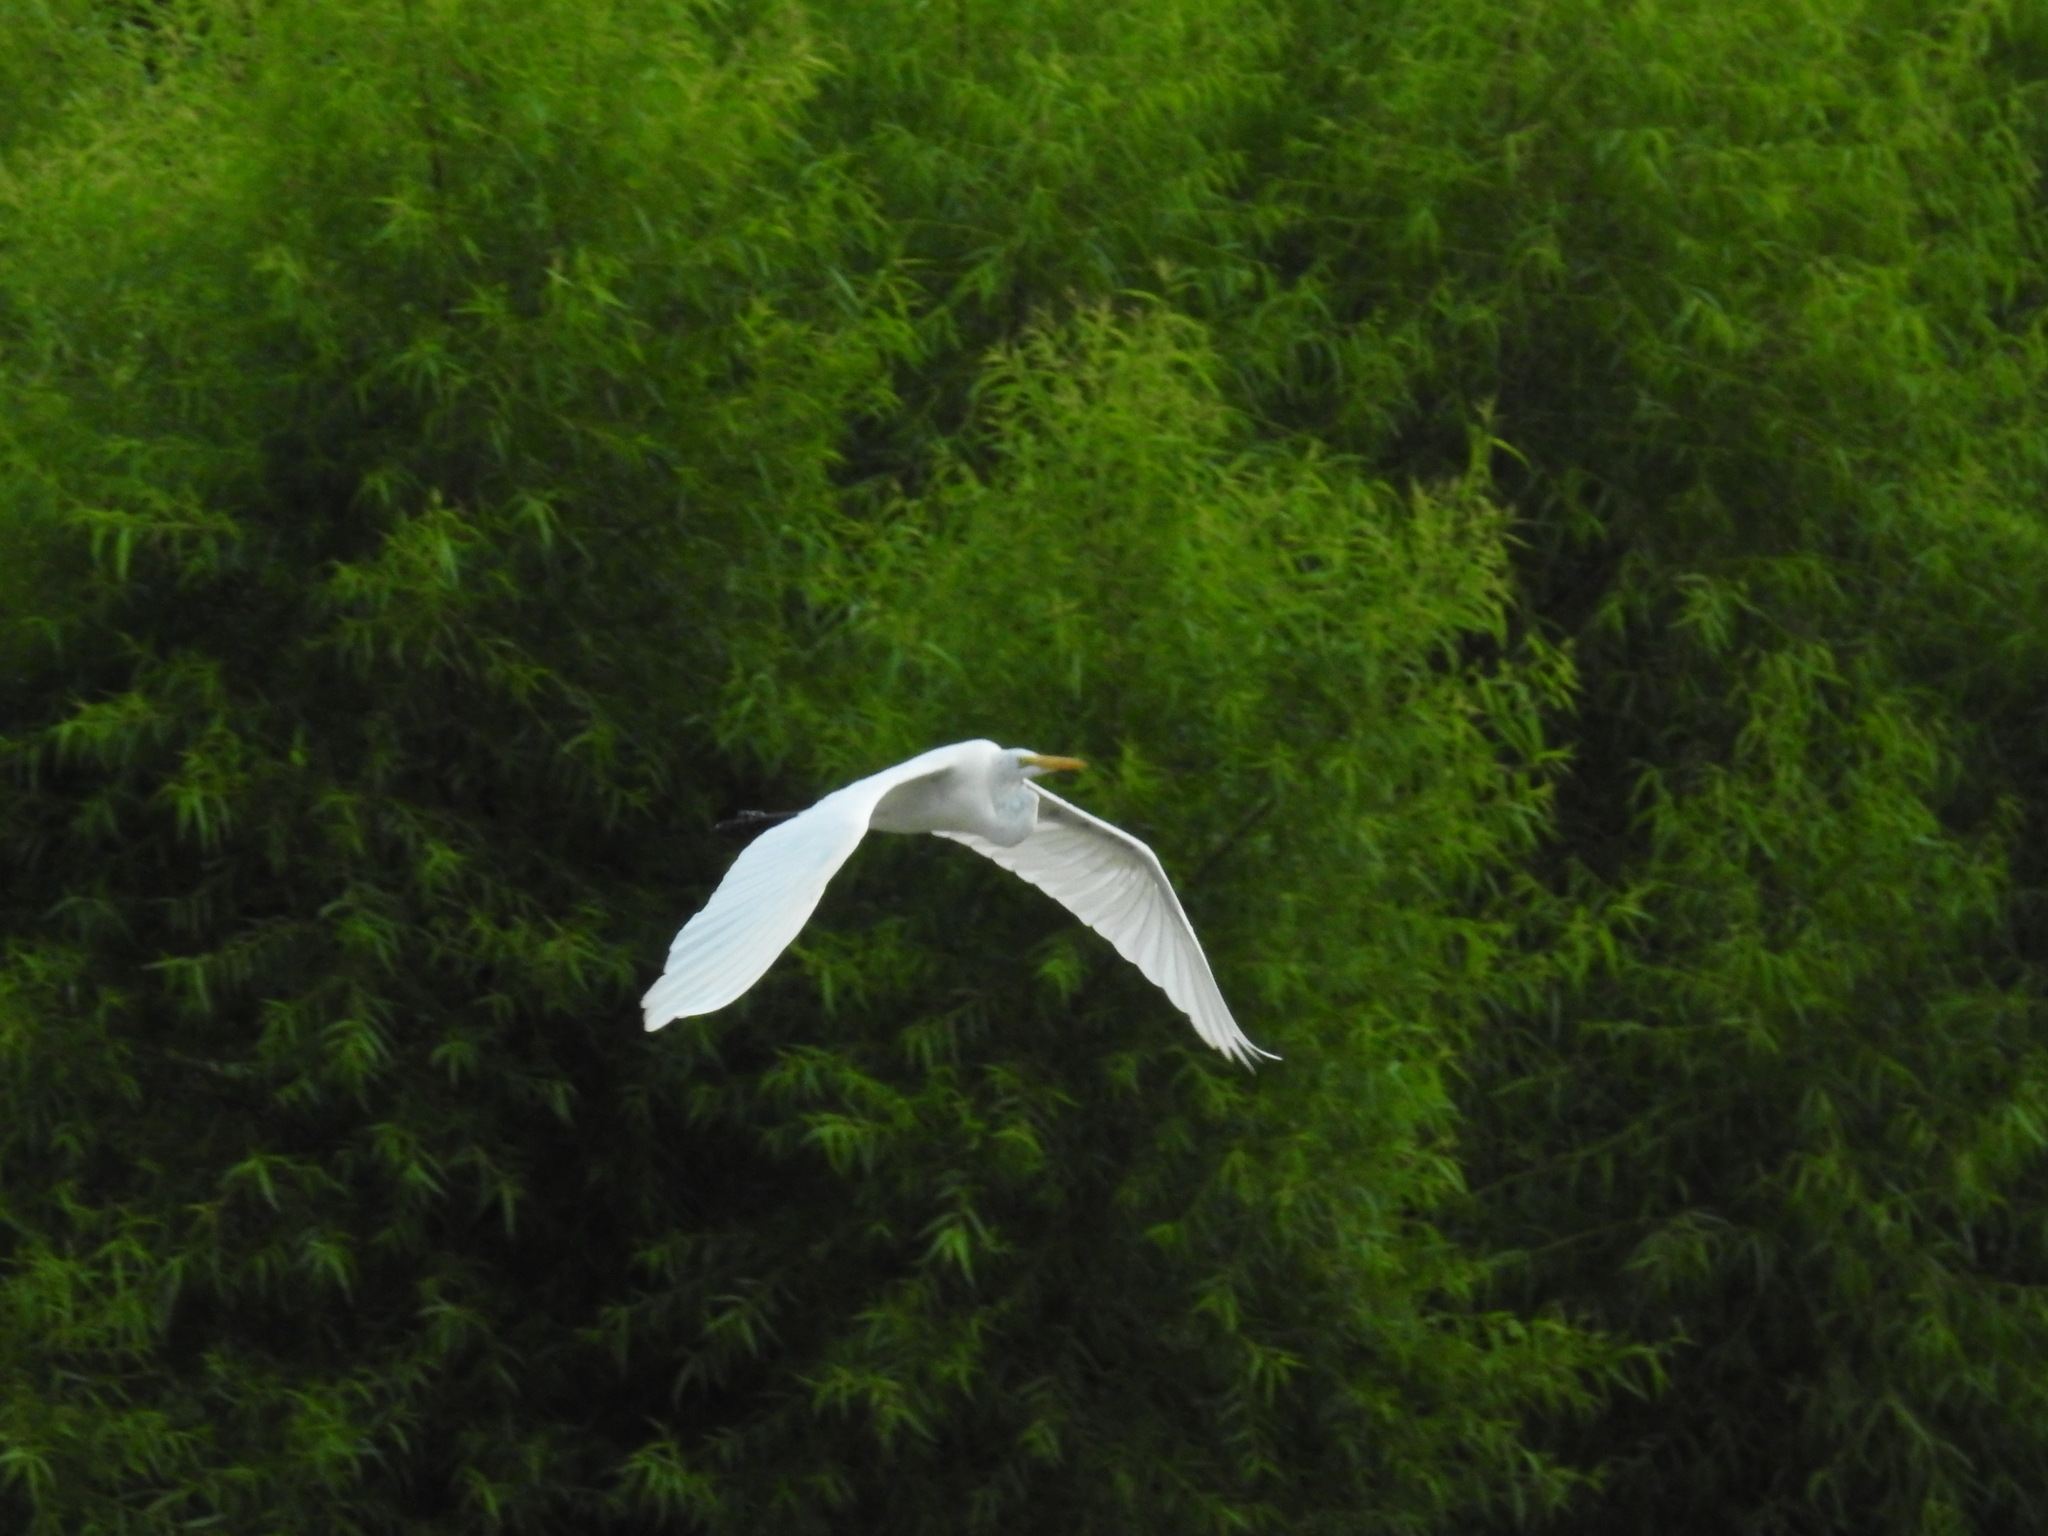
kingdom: Animalia
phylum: Chordata
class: Aves
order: Pelecaniformes
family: Ardeidae
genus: Ardea
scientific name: Ardea alba
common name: Great egret
